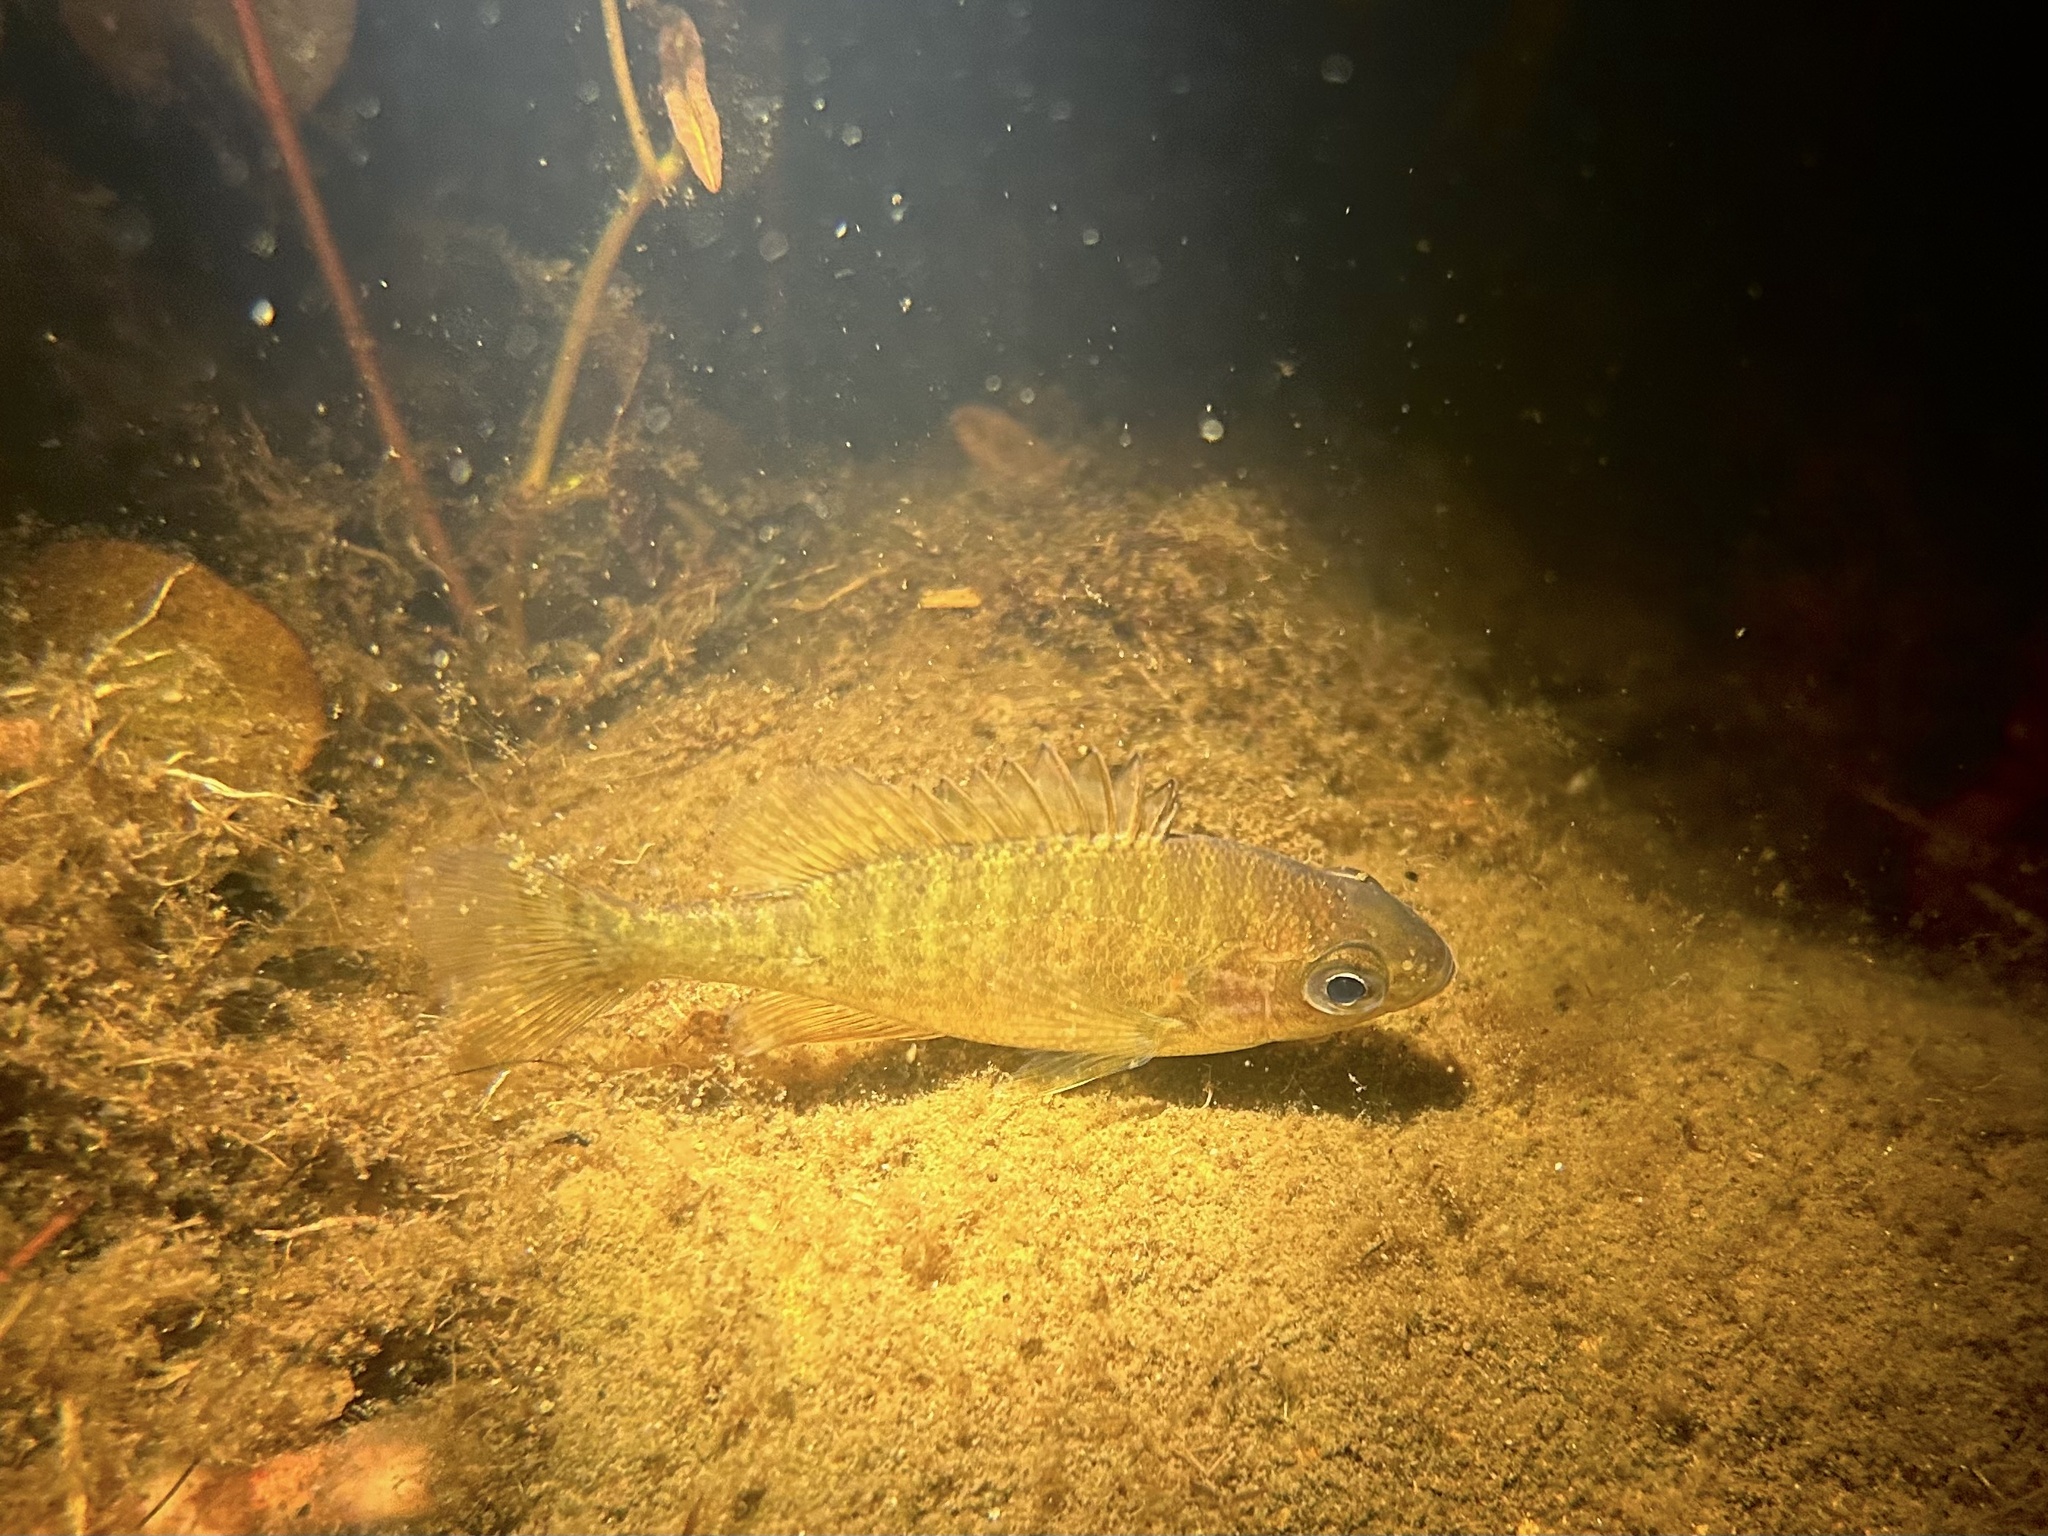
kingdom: Animalia
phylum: Chordata
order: Perciformes
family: Centrarchidae
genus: Lepomis
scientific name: Lepomis gibbosus
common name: Pumpkinseed
